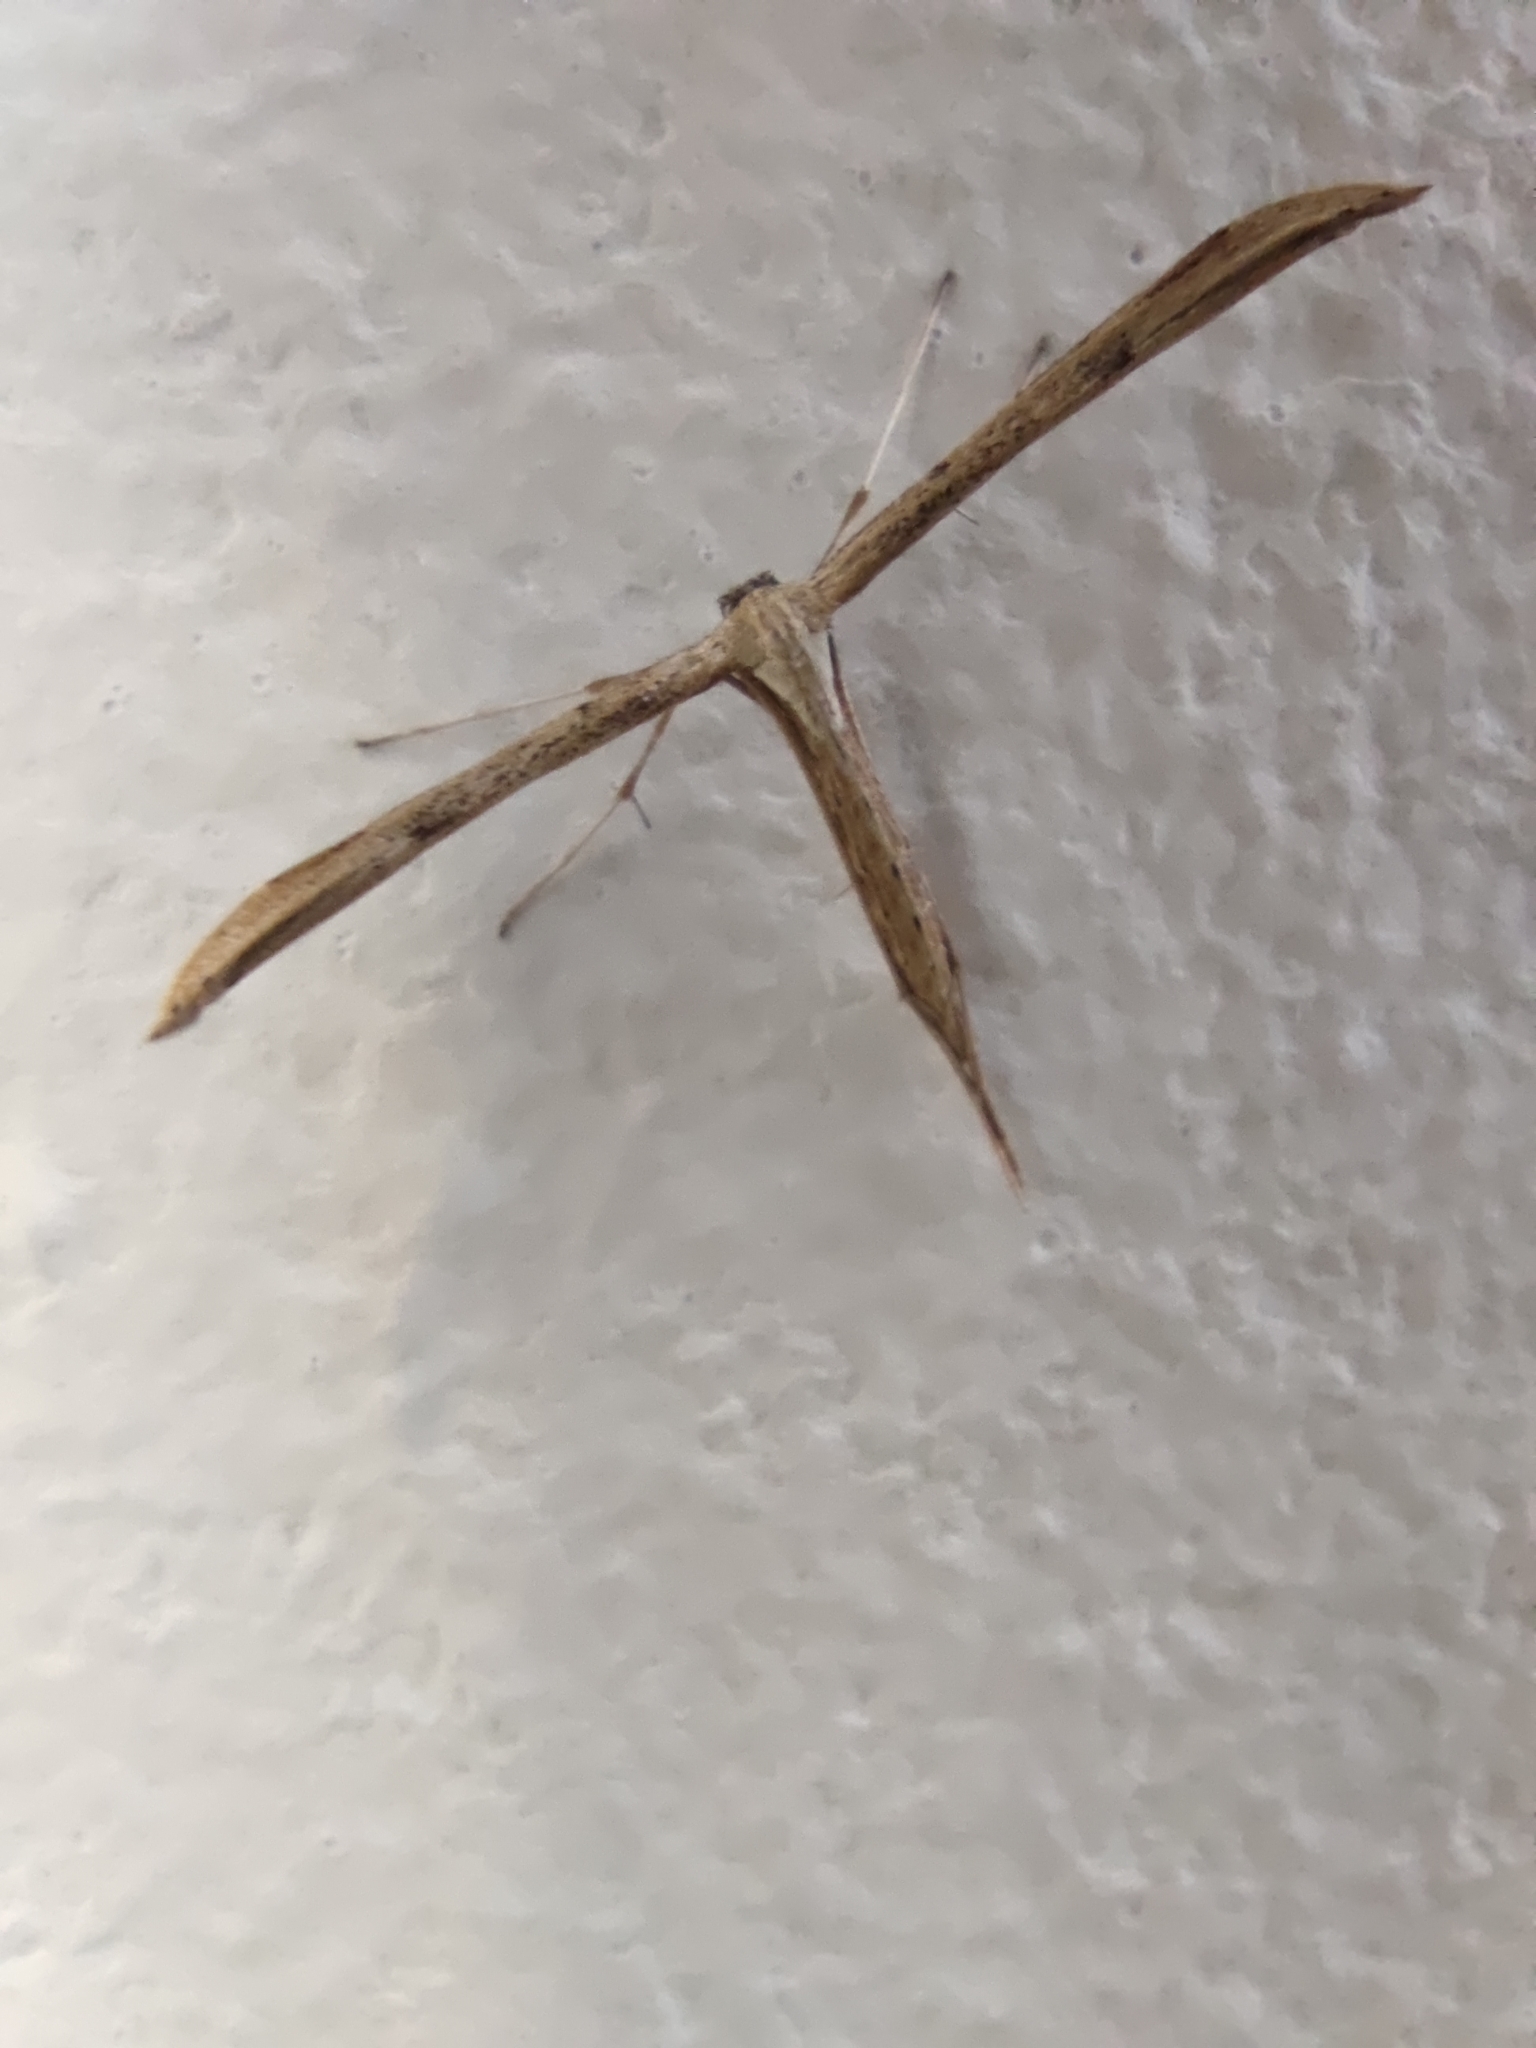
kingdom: Animalia
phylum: Arthropoda
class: Insecta
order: Lepidoptera
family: Pterophoridae
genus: Emmelina
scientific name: Emmelina monodactyla
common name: Common plume
